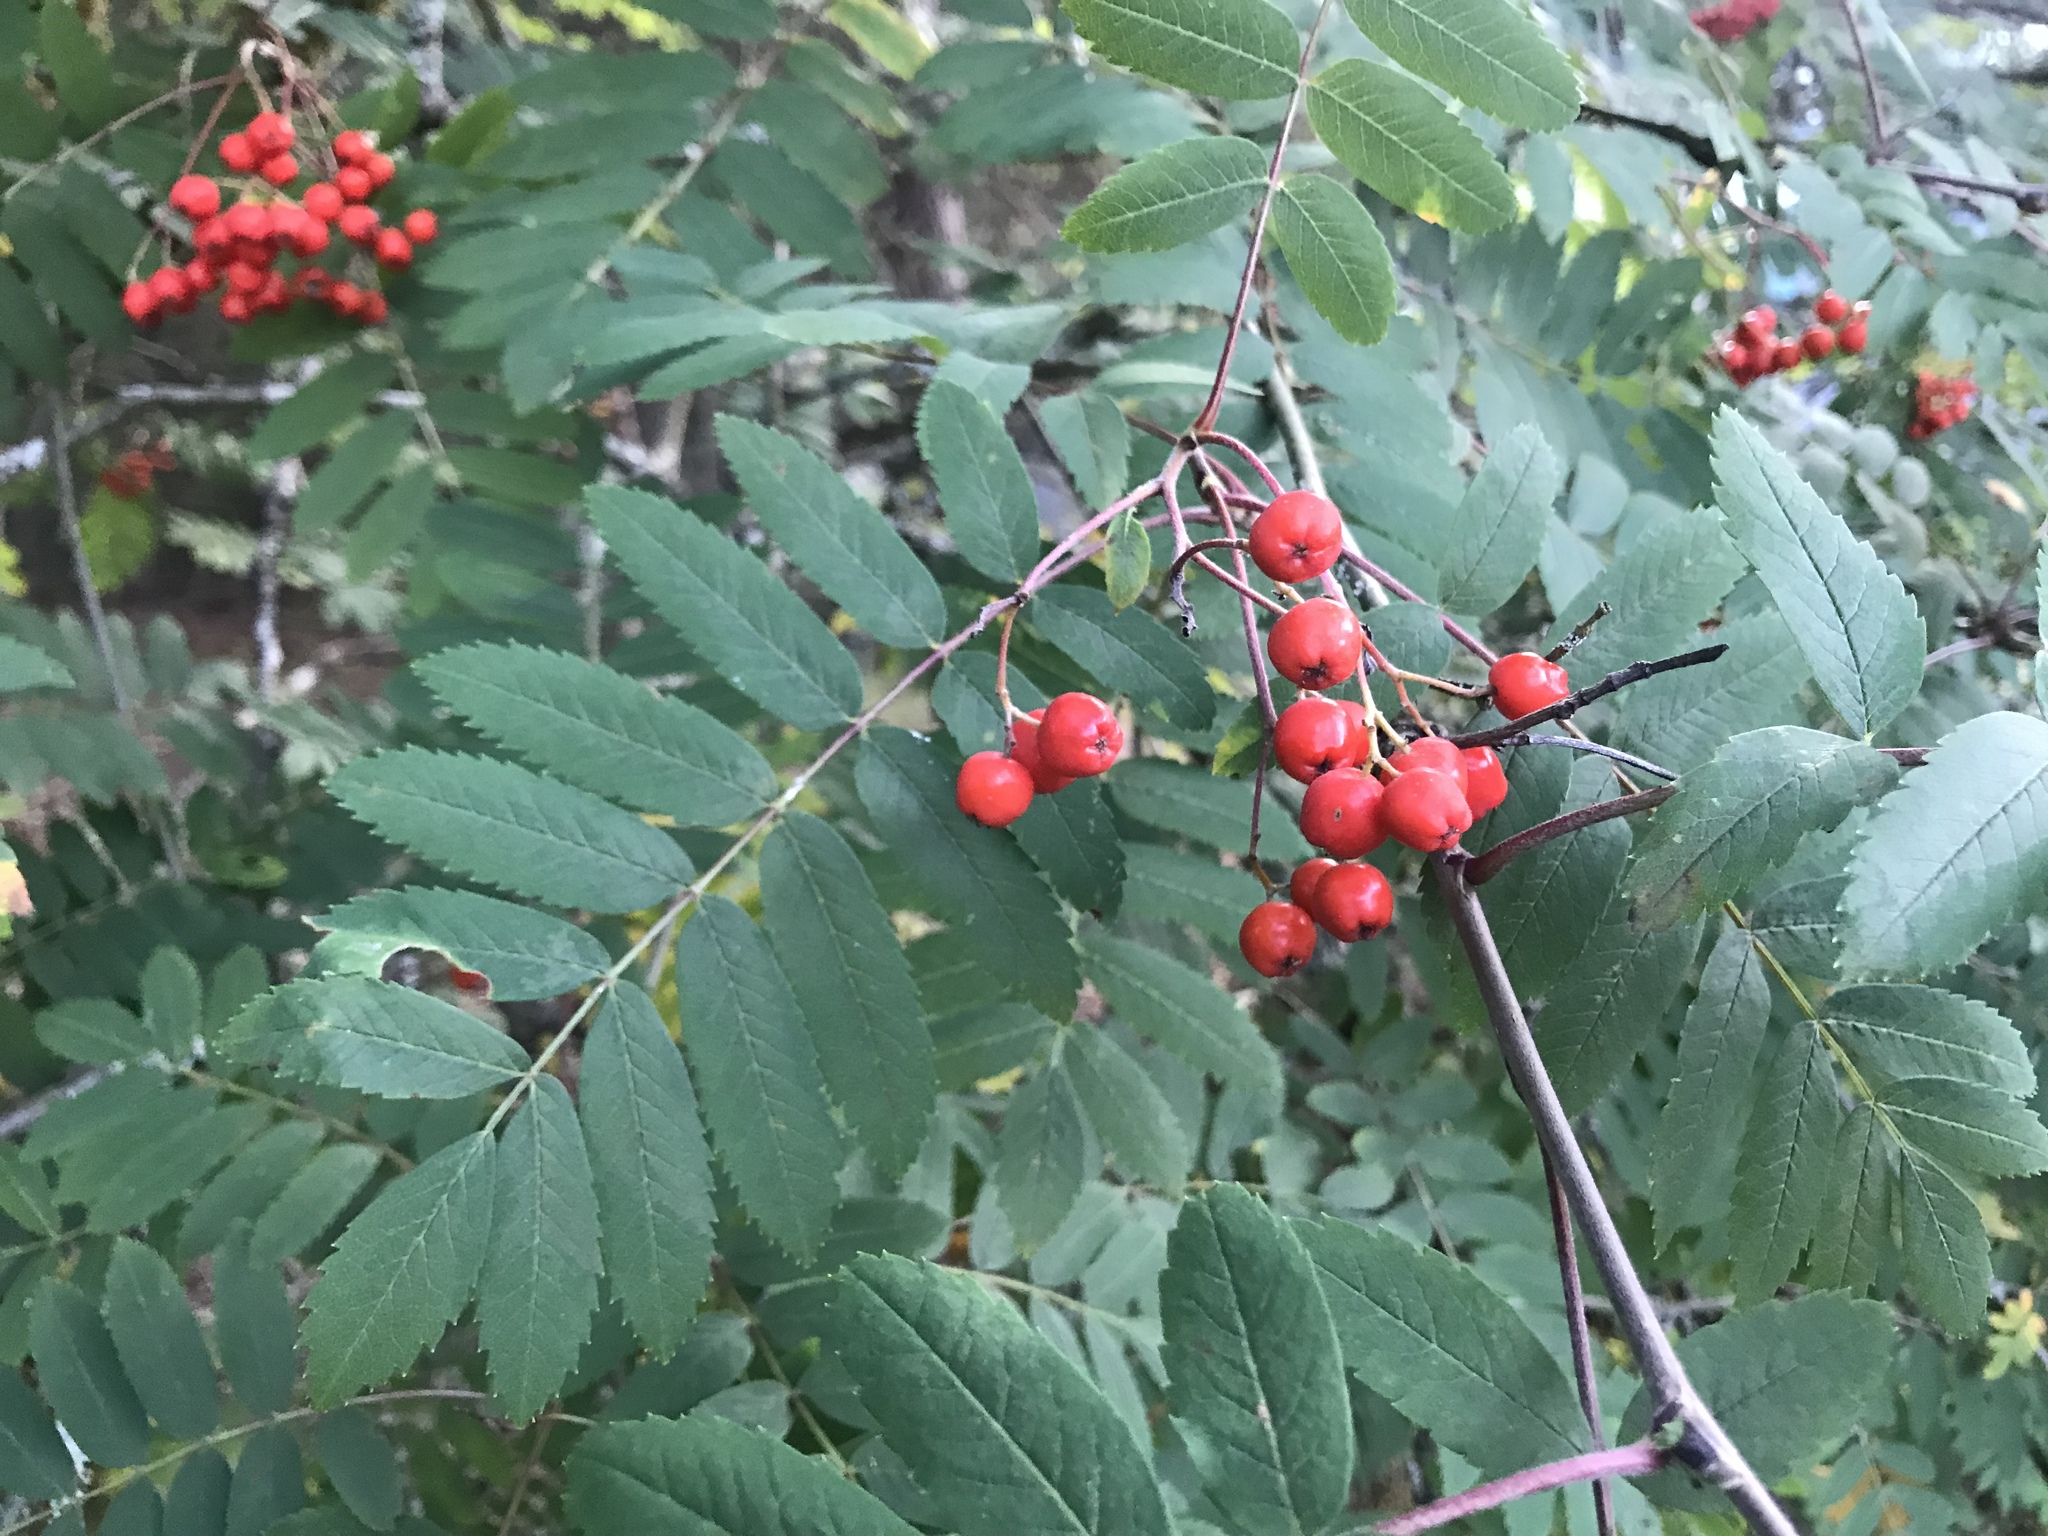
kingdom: Plantae
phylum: Tracheophyta
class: Magnoliopsida
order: Rosales
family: Rosaceae
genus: Sorbus
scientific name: Sorbus aucuparia
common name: Rowan
